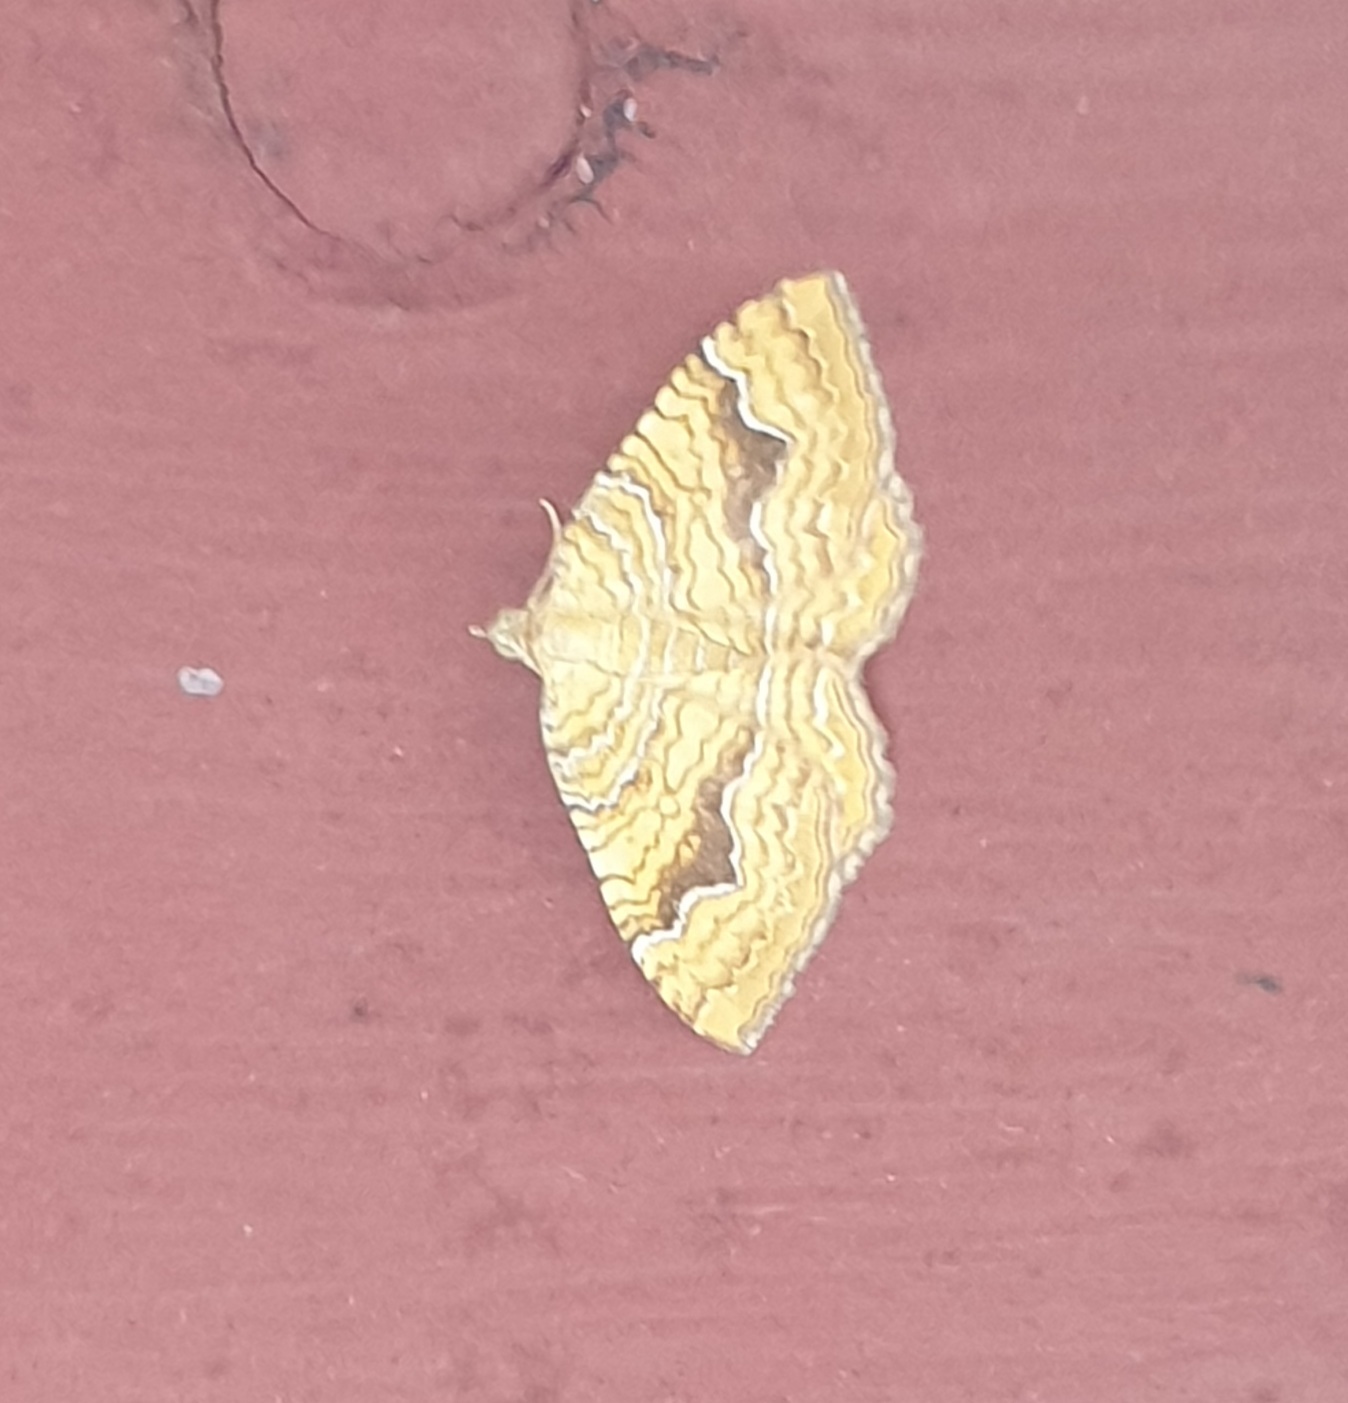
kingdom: Animalia
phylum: Arthropoda
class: Insecta
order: Lepidoptera
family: Geometridae
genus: Camptogramma
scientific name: Camptogramma bilineata
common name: Yellow shell
